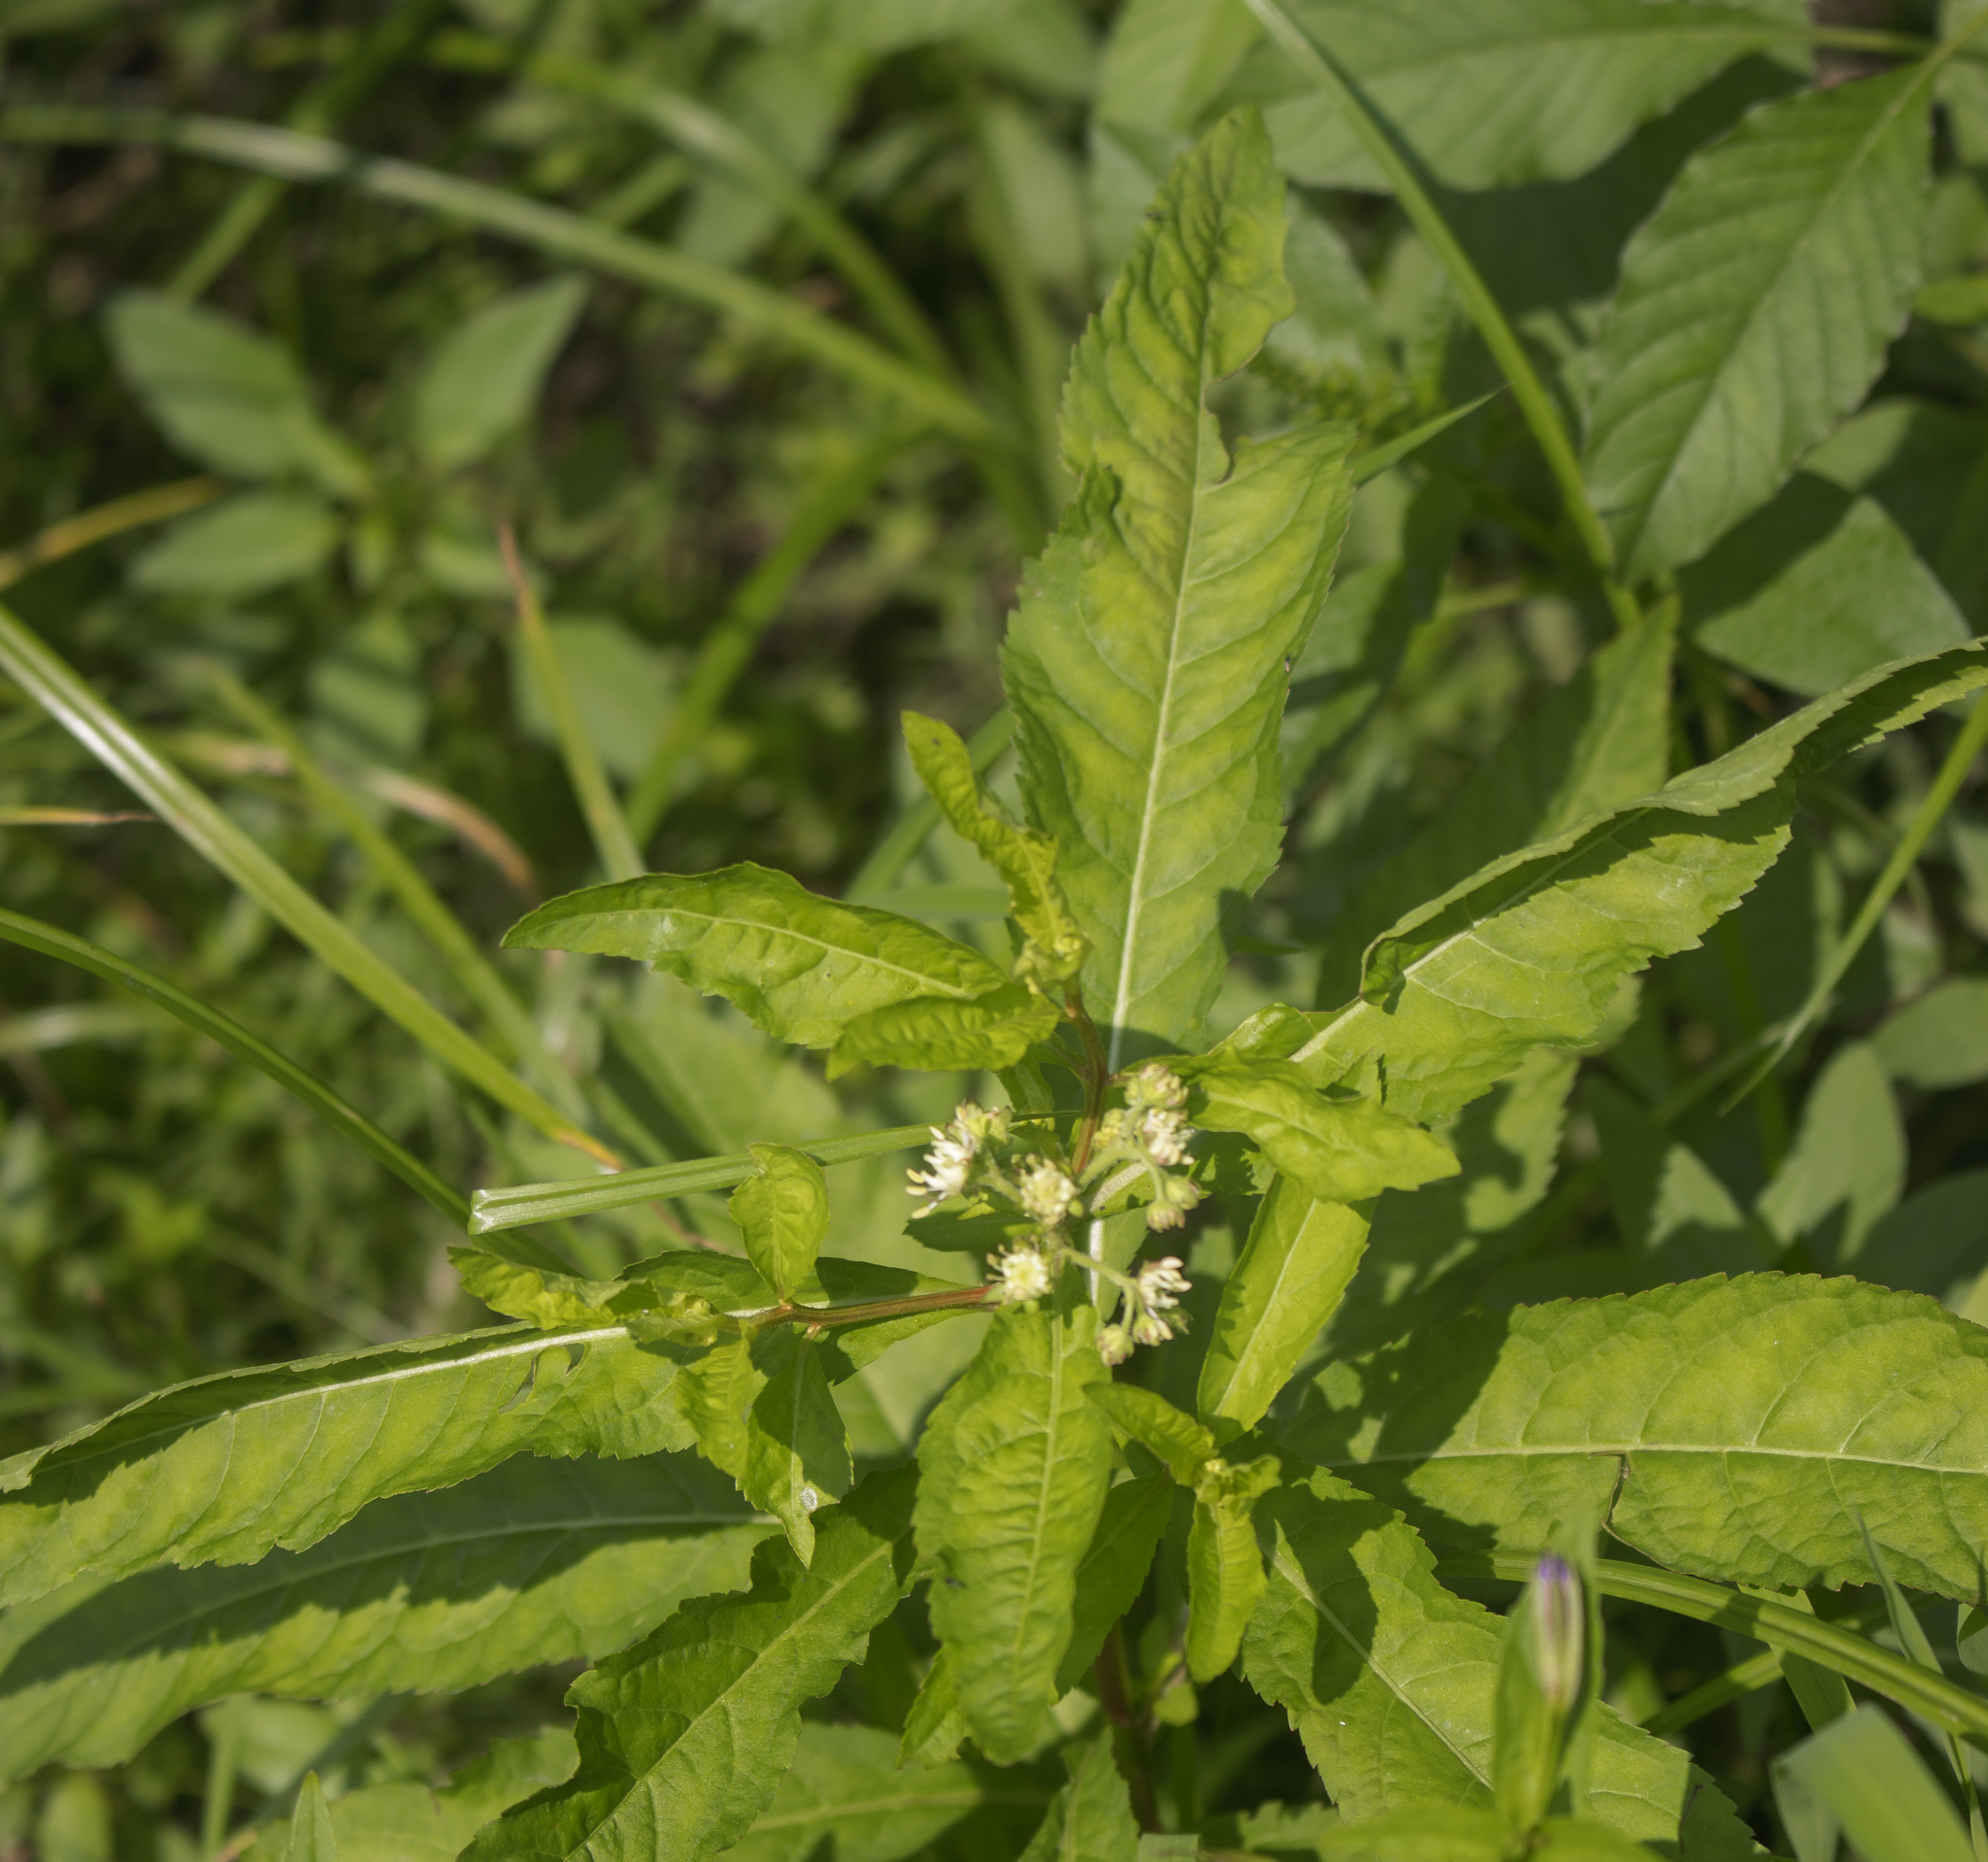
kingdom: Plantae
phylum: Tracheophyta
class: Magnoliopsida
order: Saxifragales
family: Penthoraceae
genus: Penthorum
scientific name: Penthorum sedoides
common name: Ditch stonecrop
